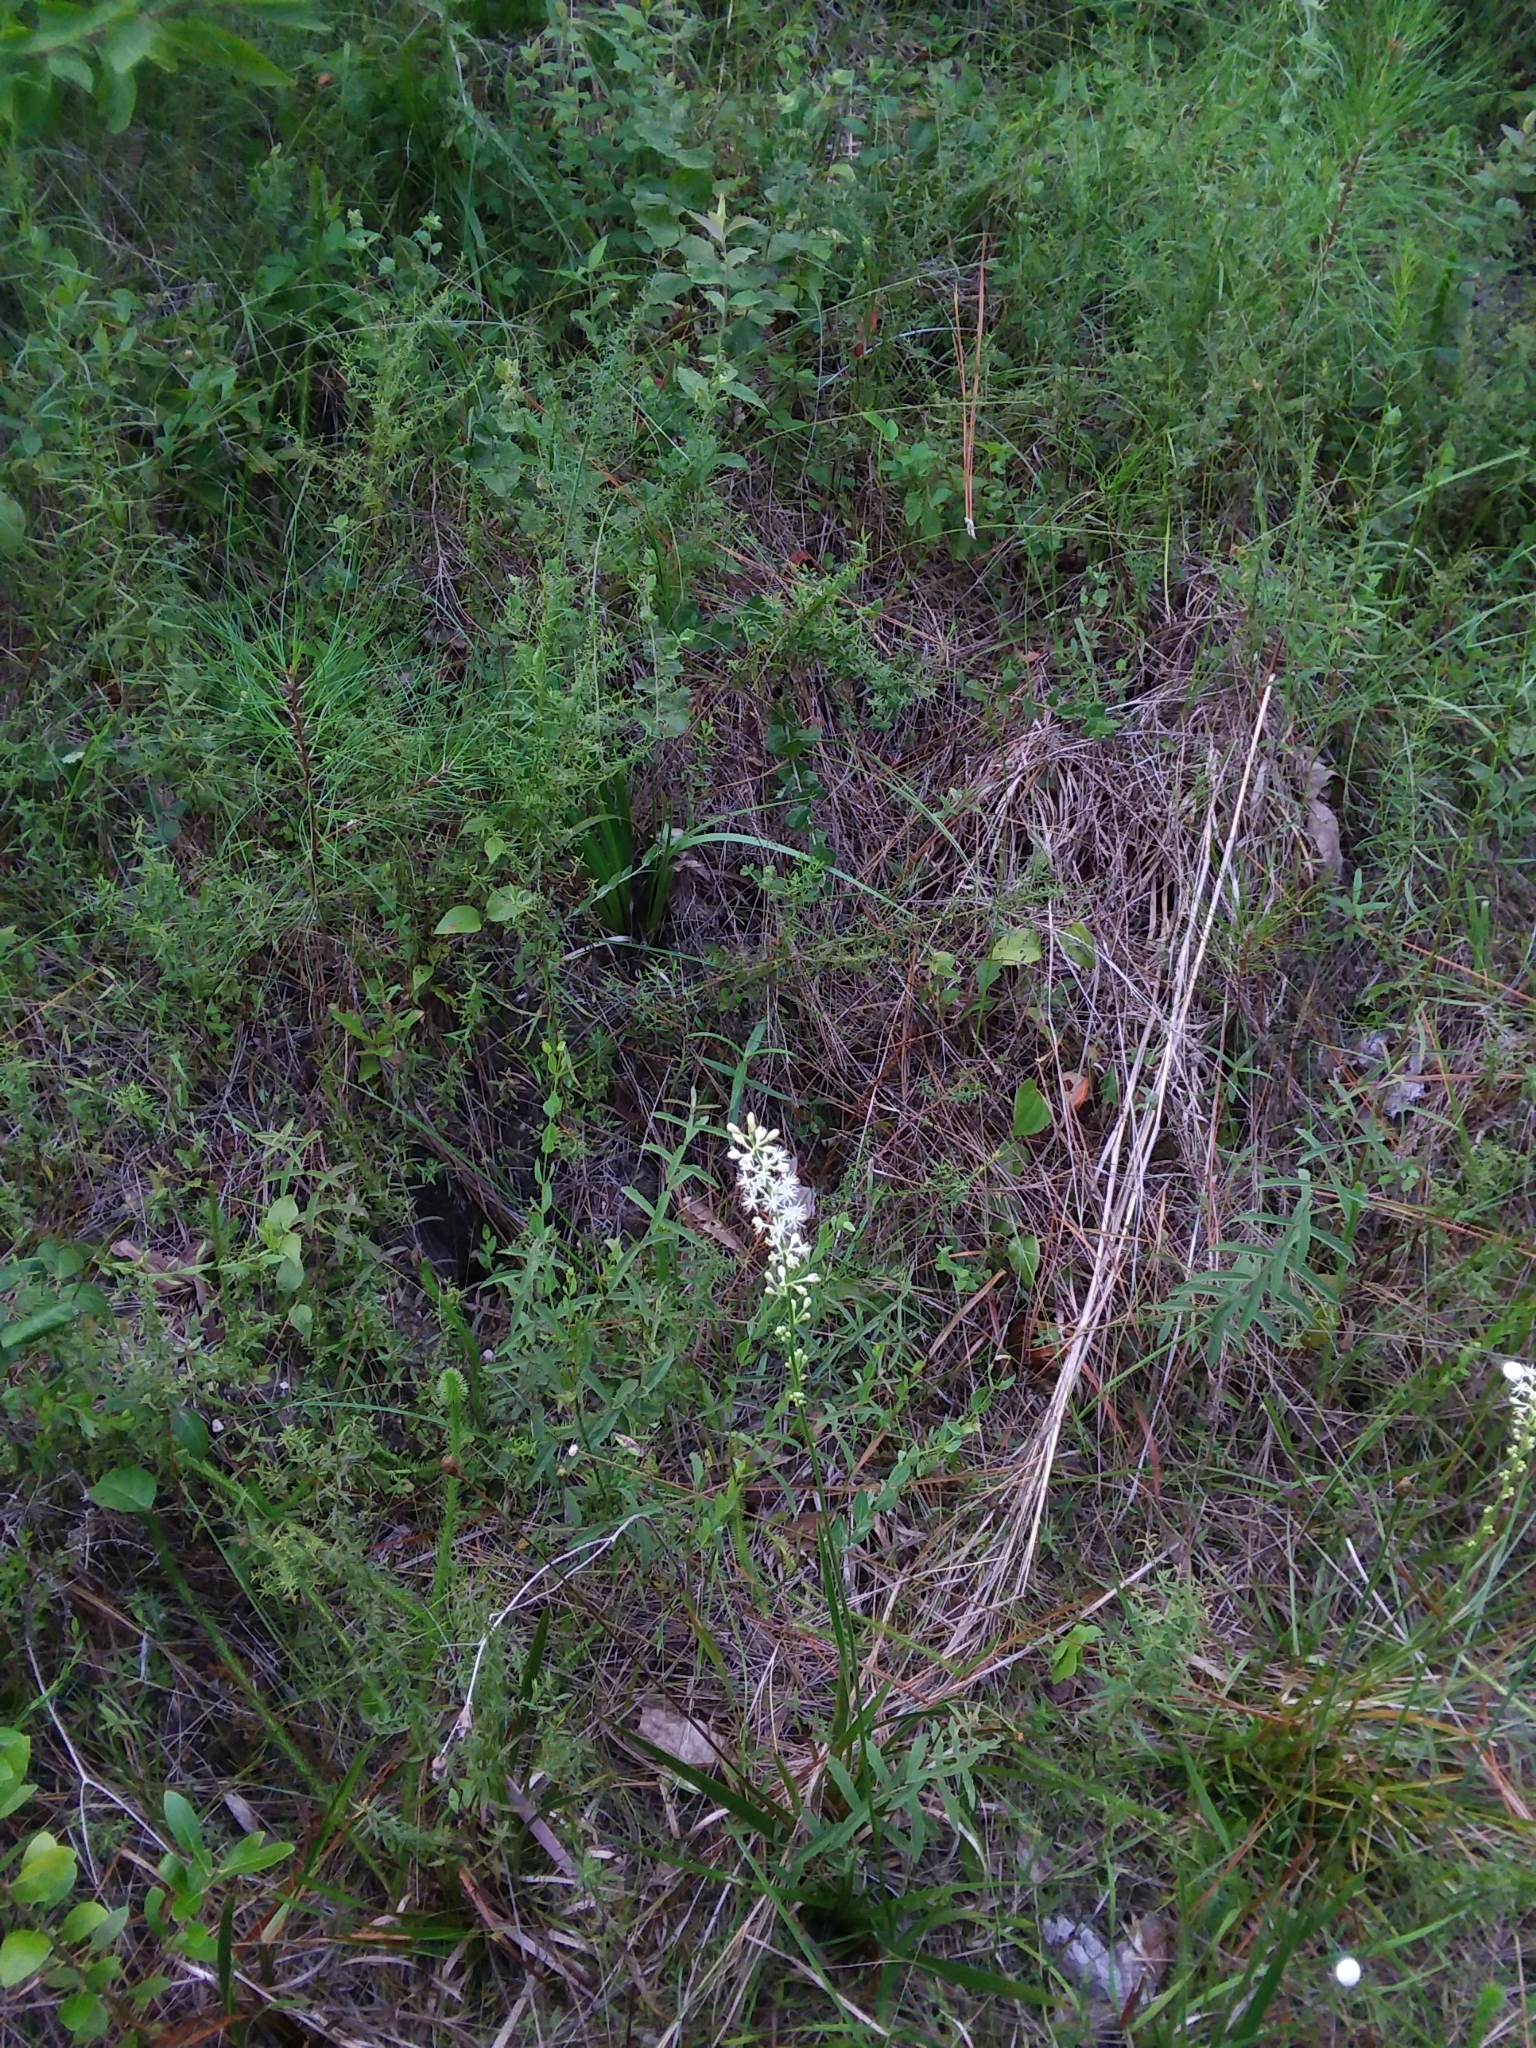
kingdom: Plantae
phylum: Tracheophyta
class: Liliopsida
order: Alismatales
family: Tofieldiaceae
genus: Triantha
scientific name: Triantha racemosa
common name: Coastal false asphodel
